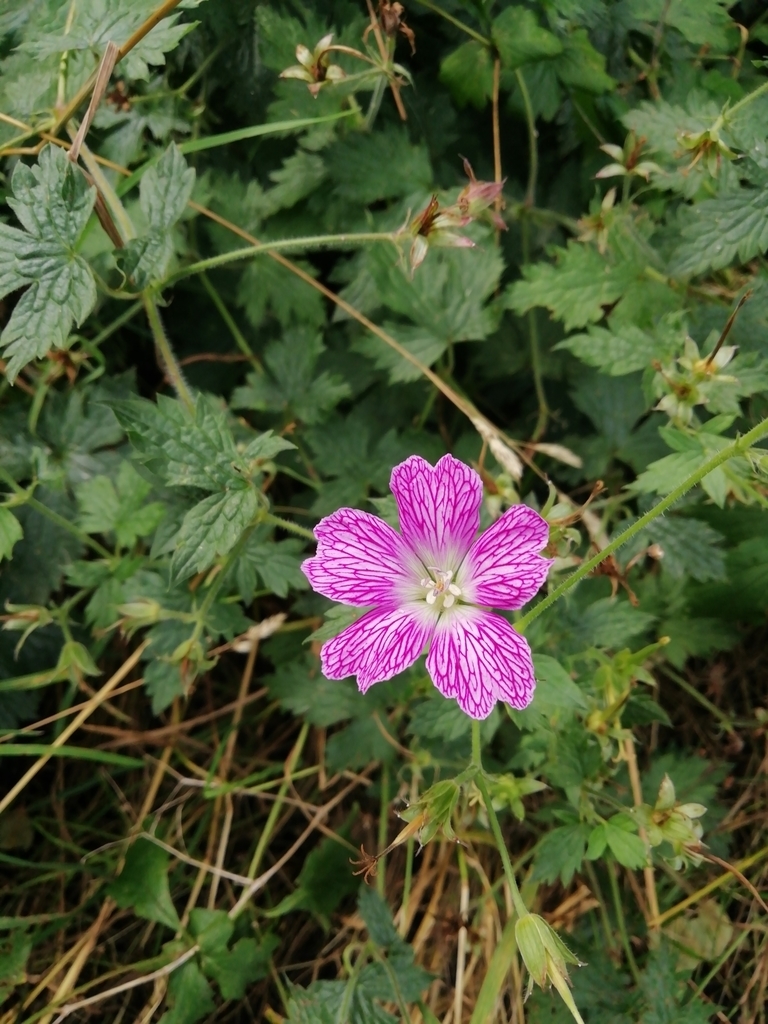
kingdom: Plantae
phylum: Tracheophyta
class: Magnoliopsida
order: Geraniales
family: Geraniaceae
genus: Geranium
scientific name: Geranium oxonianum
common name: Druce's crane's-bill
